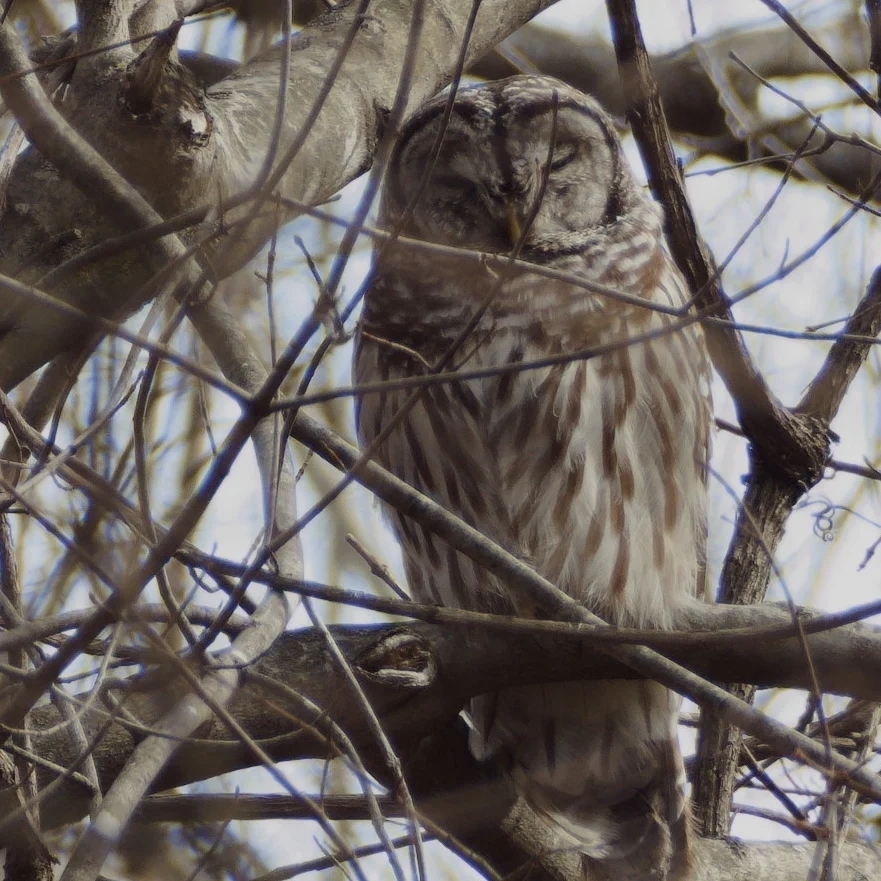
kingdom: Animalia
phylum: Chordata
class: Aves
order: Strigiformes
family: Strigidae
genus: Strix
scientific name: Strix varia
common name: Barred owl
